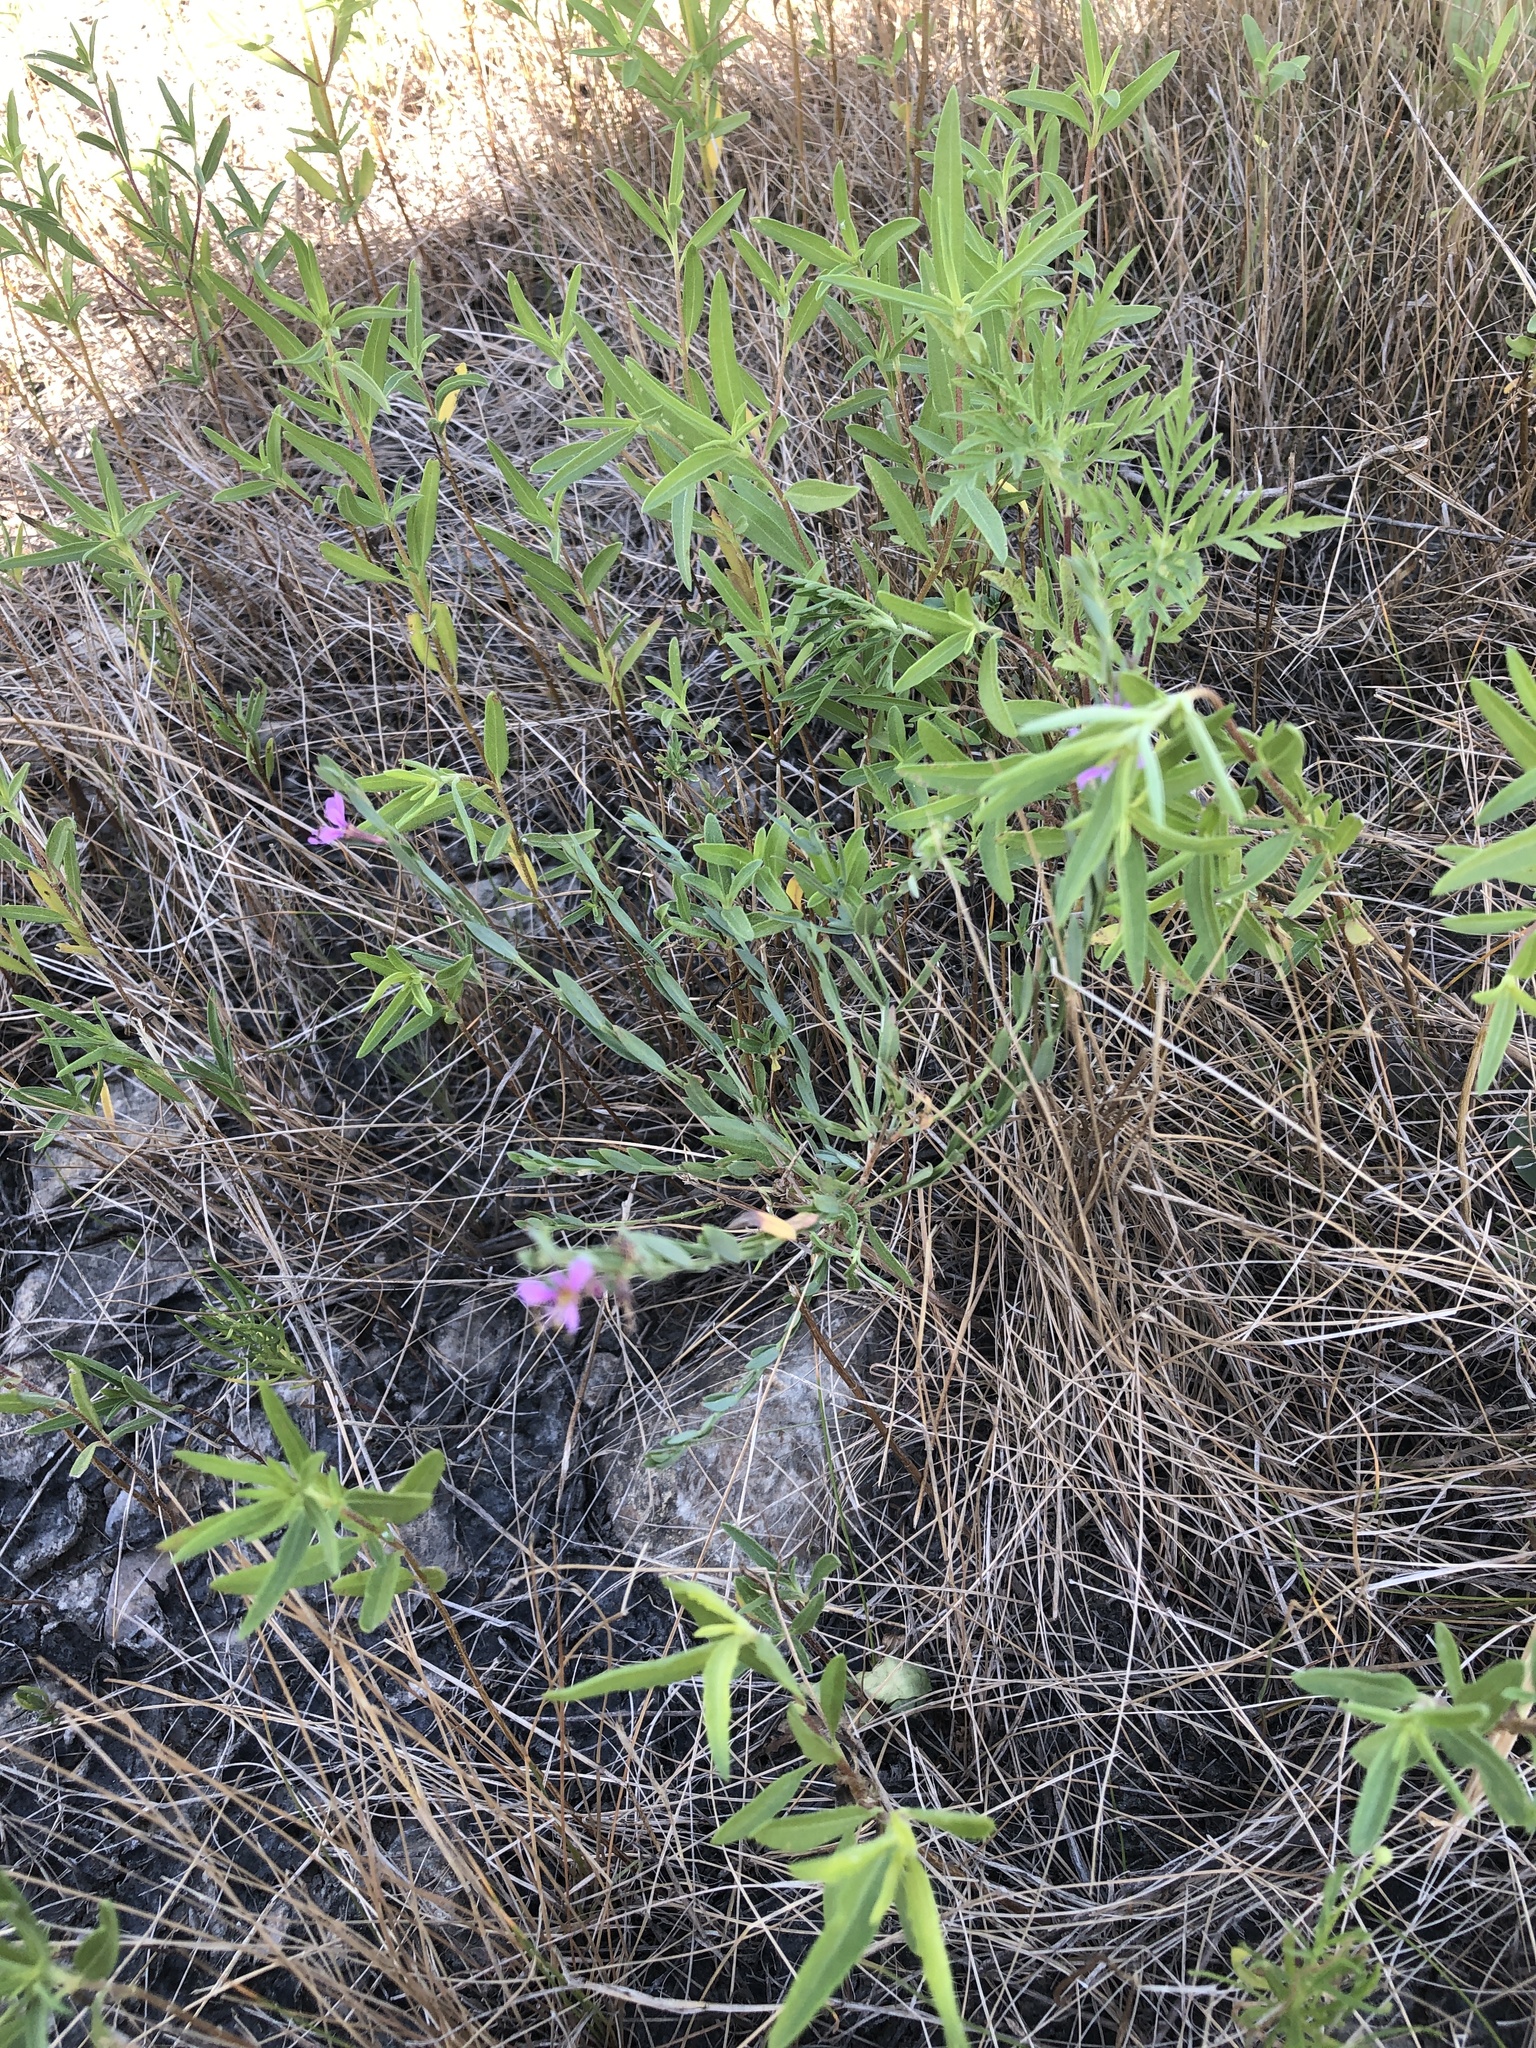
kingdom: Plantae
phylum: Tracheophyta
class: Magnoliopsida
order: Myrtales
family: Lythraceae
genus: Lythrum
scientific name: Lythrum alatum
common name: Winged loosestrife
